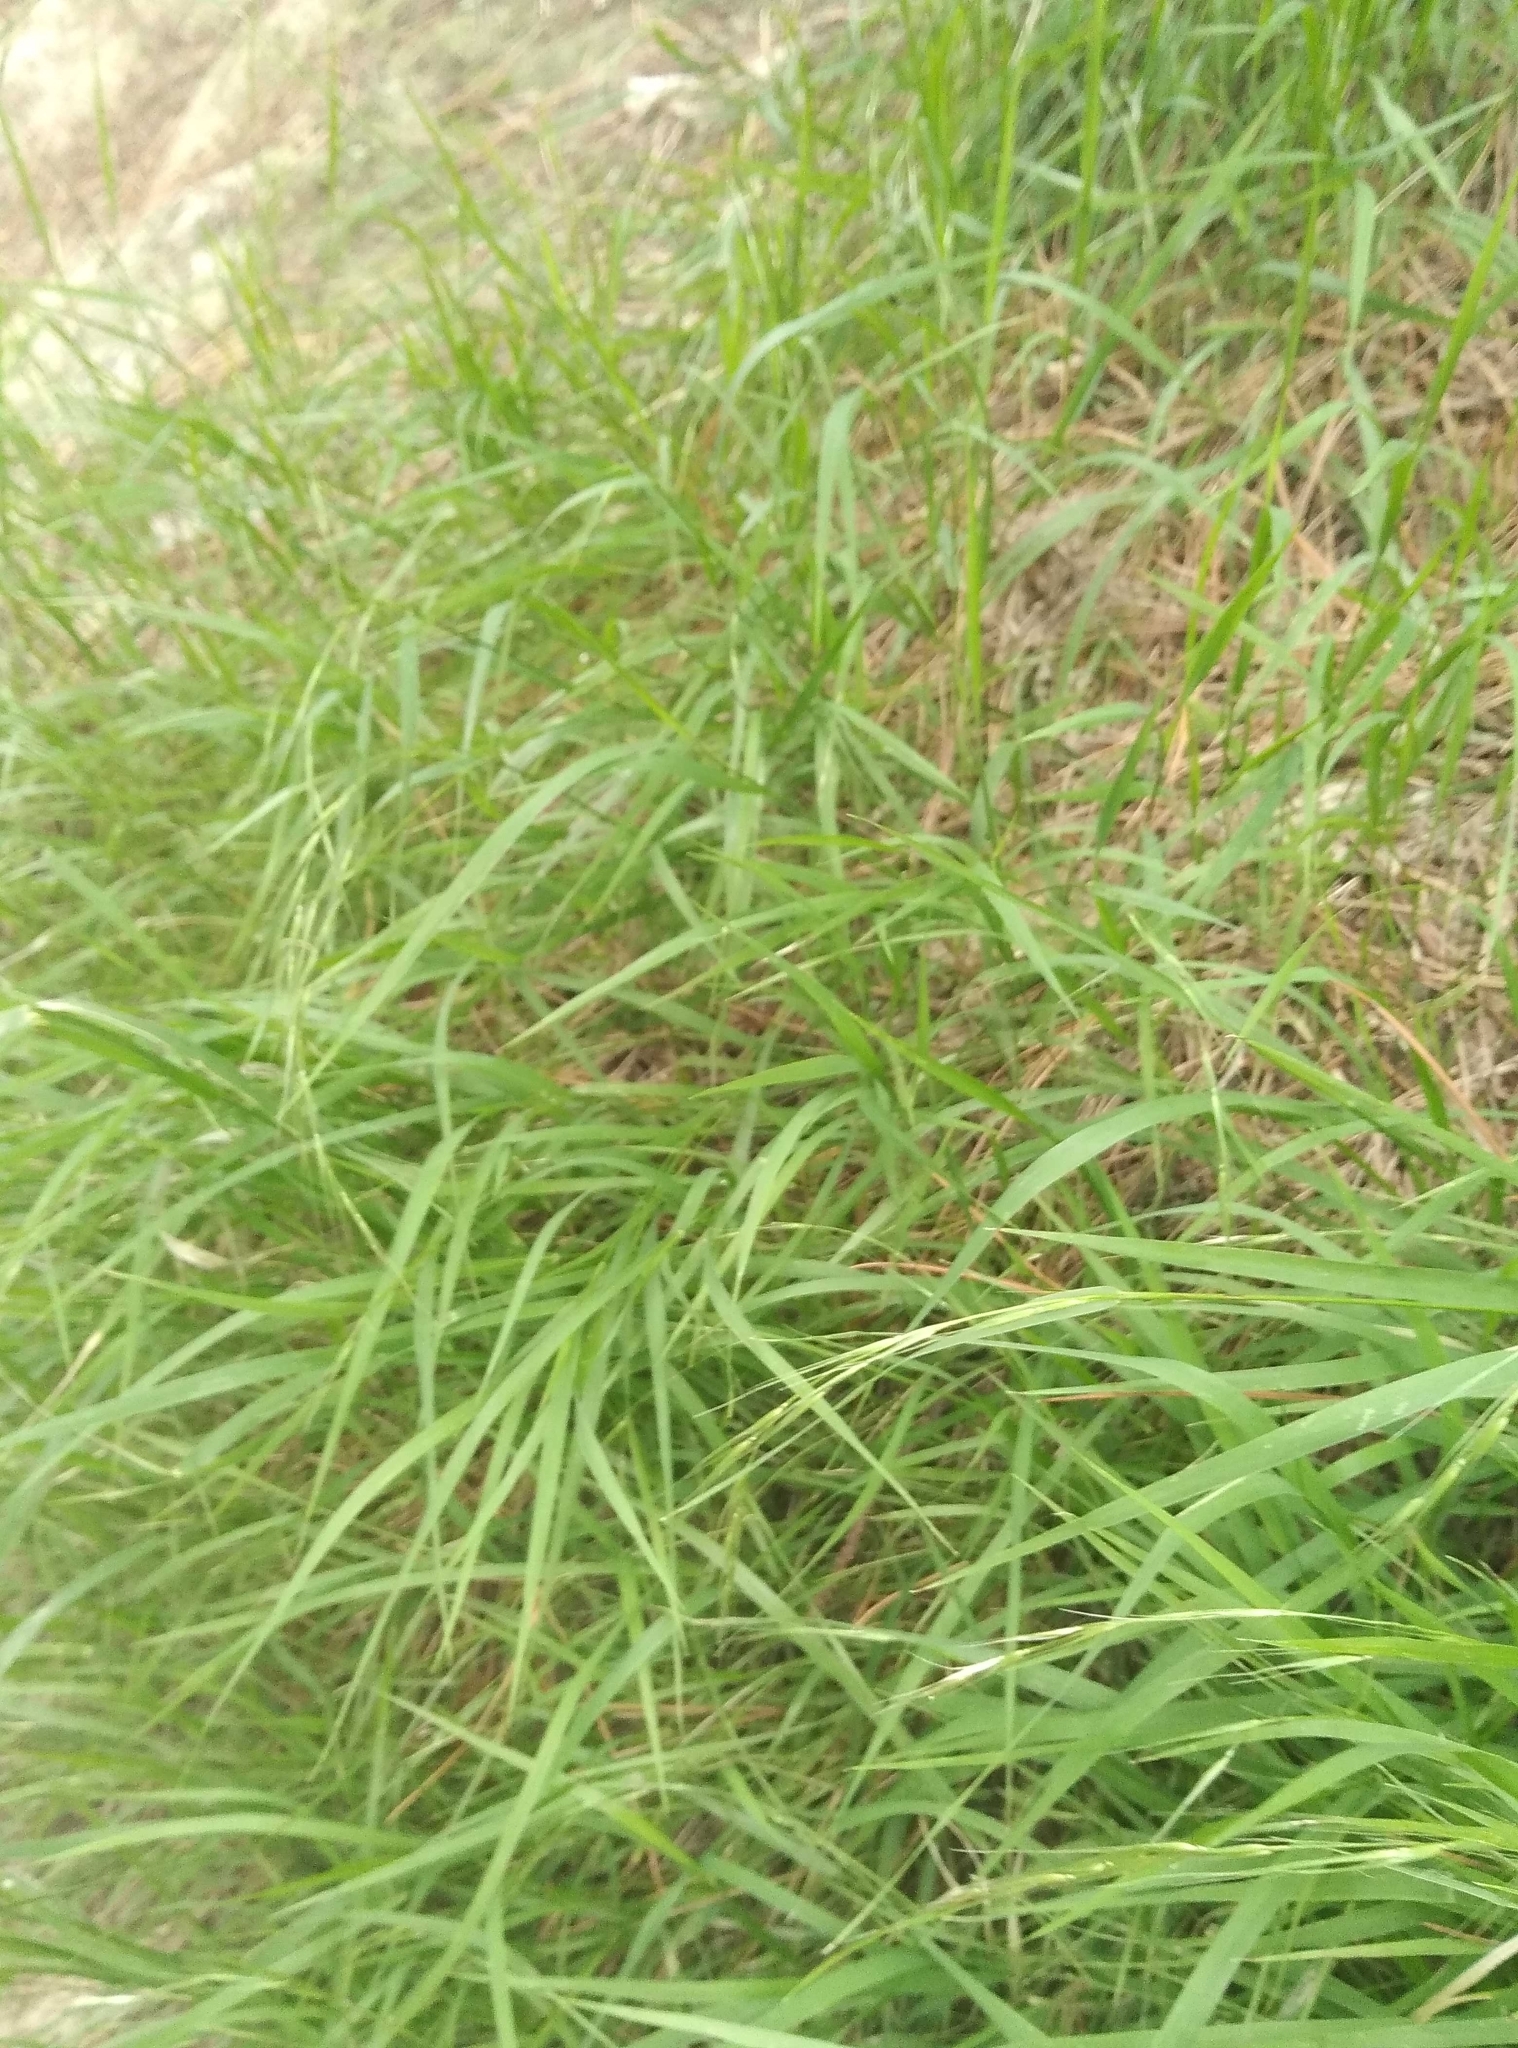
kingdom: Plantae
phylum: Tracheophyta
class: Liliopsida
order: Poales
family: Poaceae
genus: Microlaena
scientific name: Microlaena stipoides
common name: Meadow ricegrass
